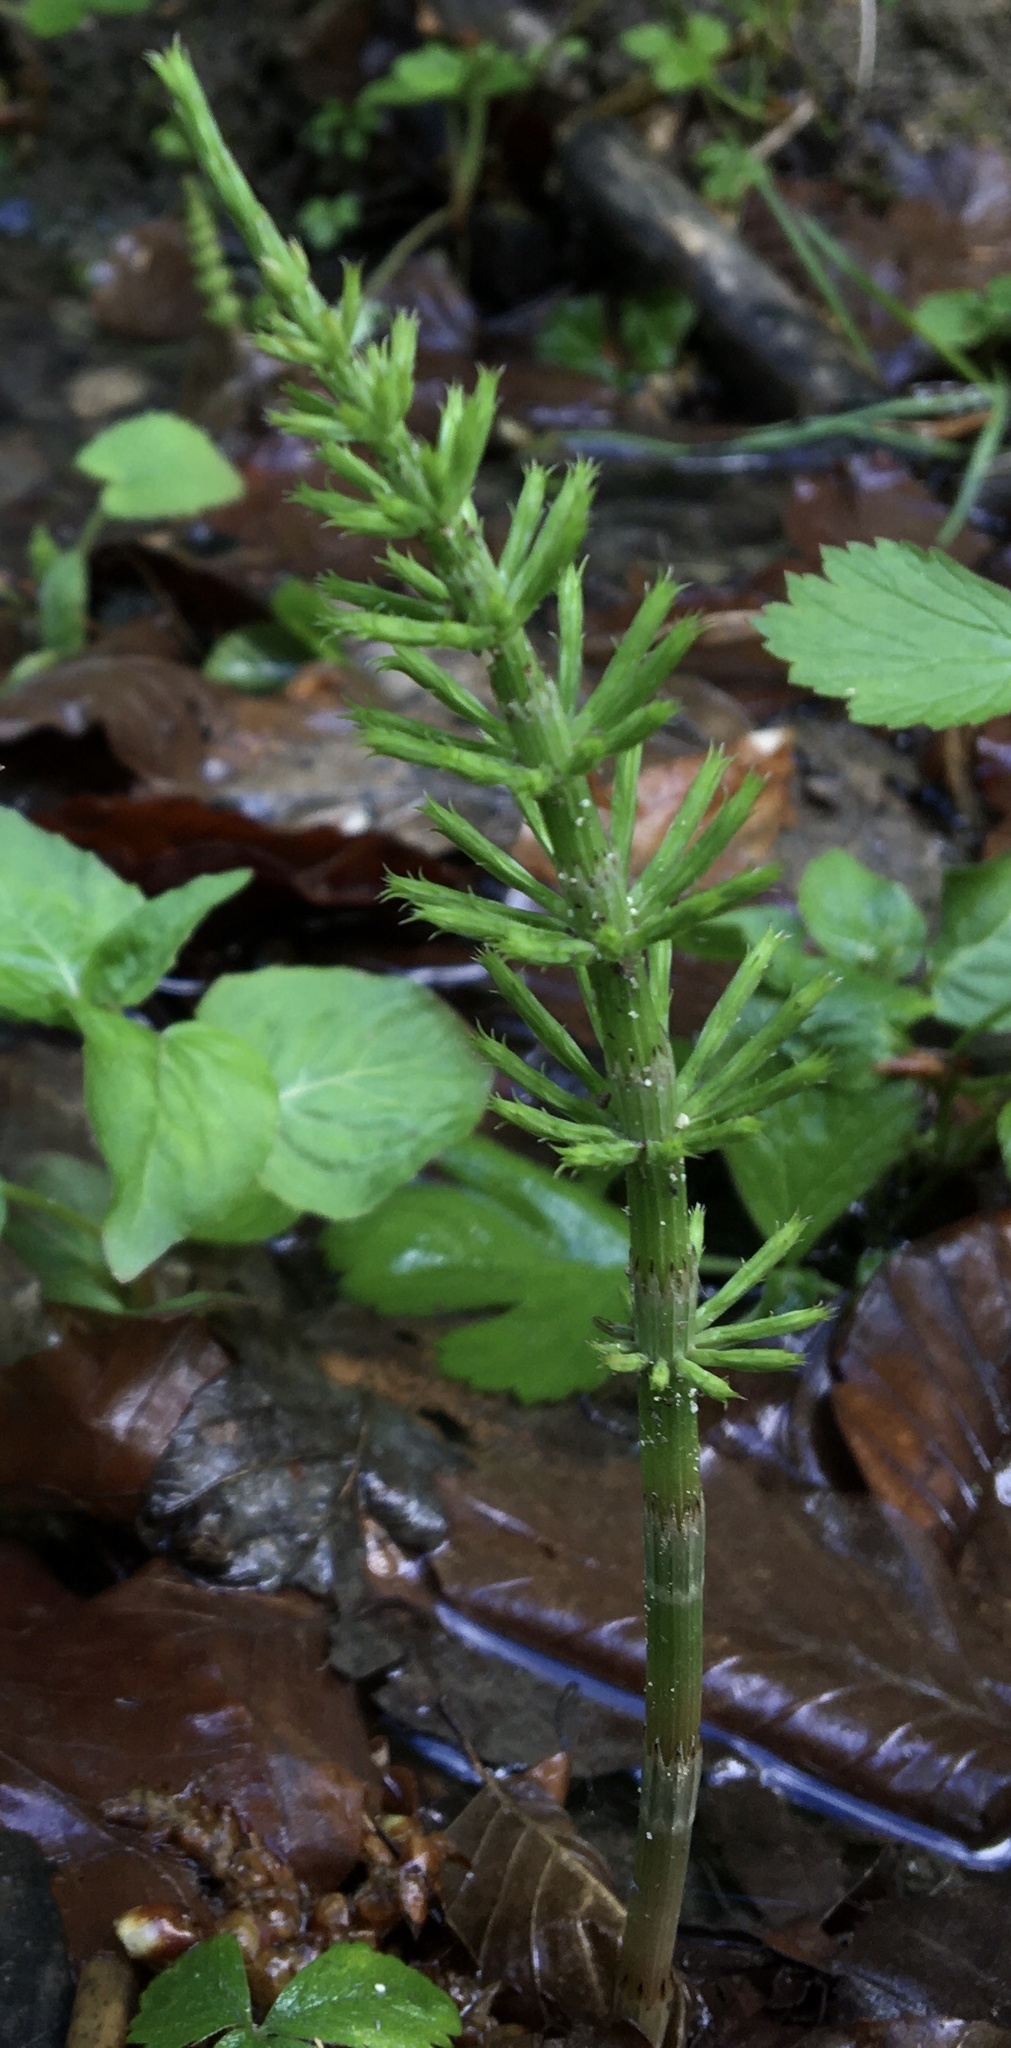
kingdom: Plantae
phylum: Tracheophyta
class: Polypodiopsida
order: Equisetales
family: Equisetaceae
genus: Equisetum
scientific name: Equisetum arvense
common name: Field horsetail
